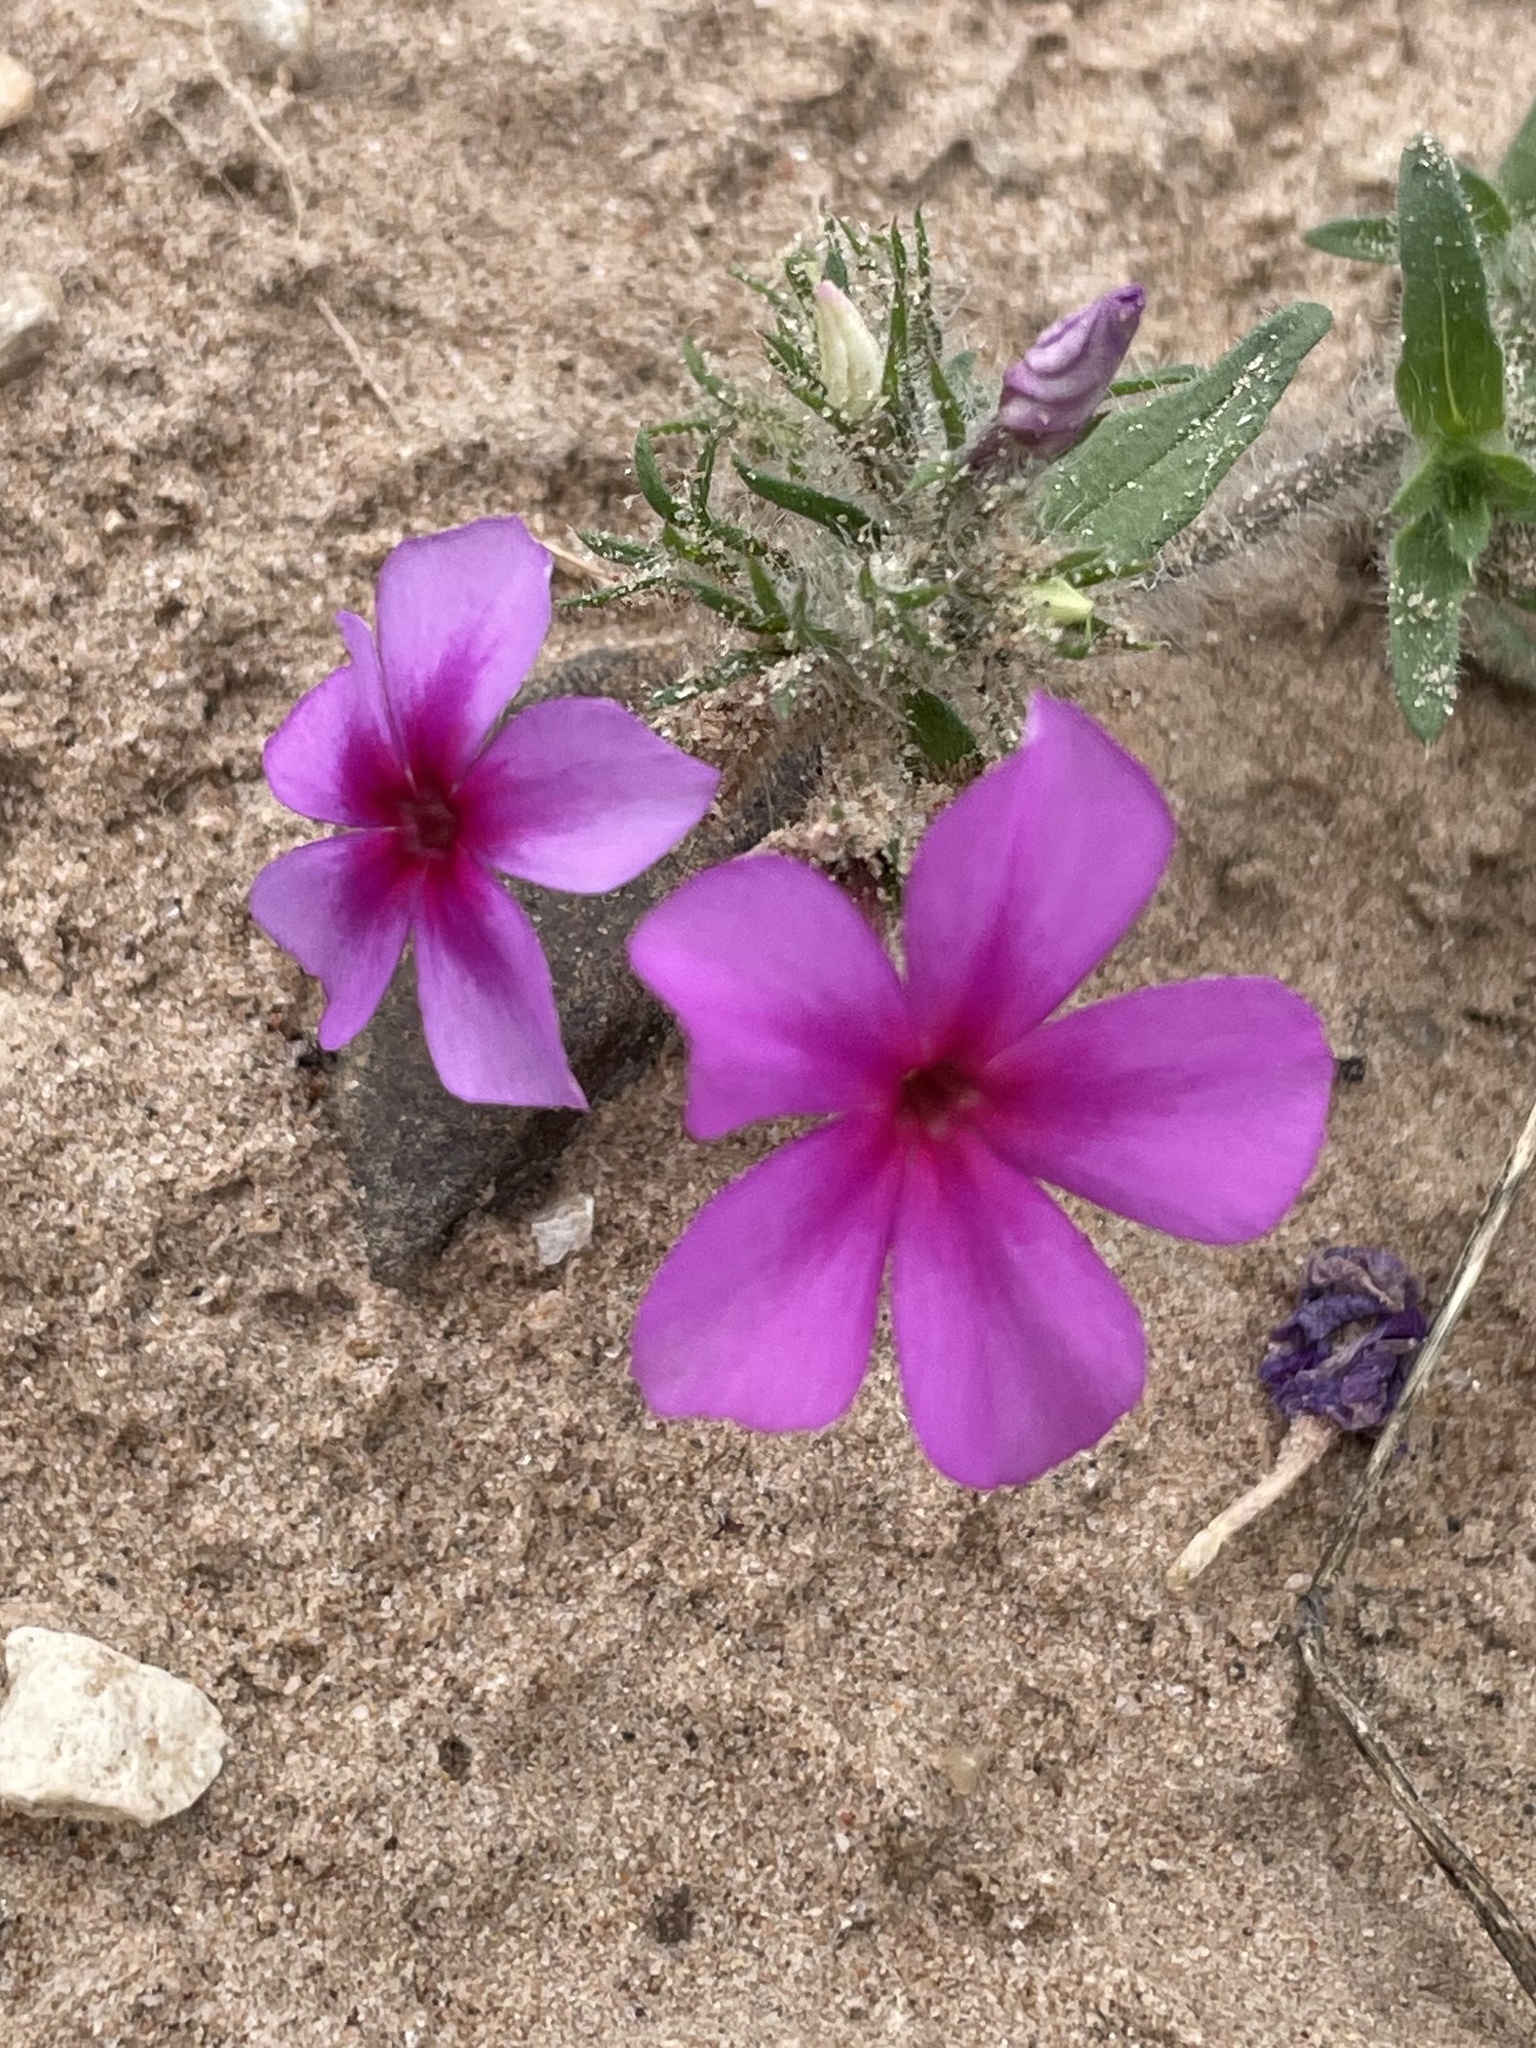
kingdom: Plantae
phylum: Tracheophyta
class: Magnoliopsida
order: Ericales
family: Polemoniaceae
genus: Phlox
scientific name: Phlox drummondii
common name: Drummond's phlox
